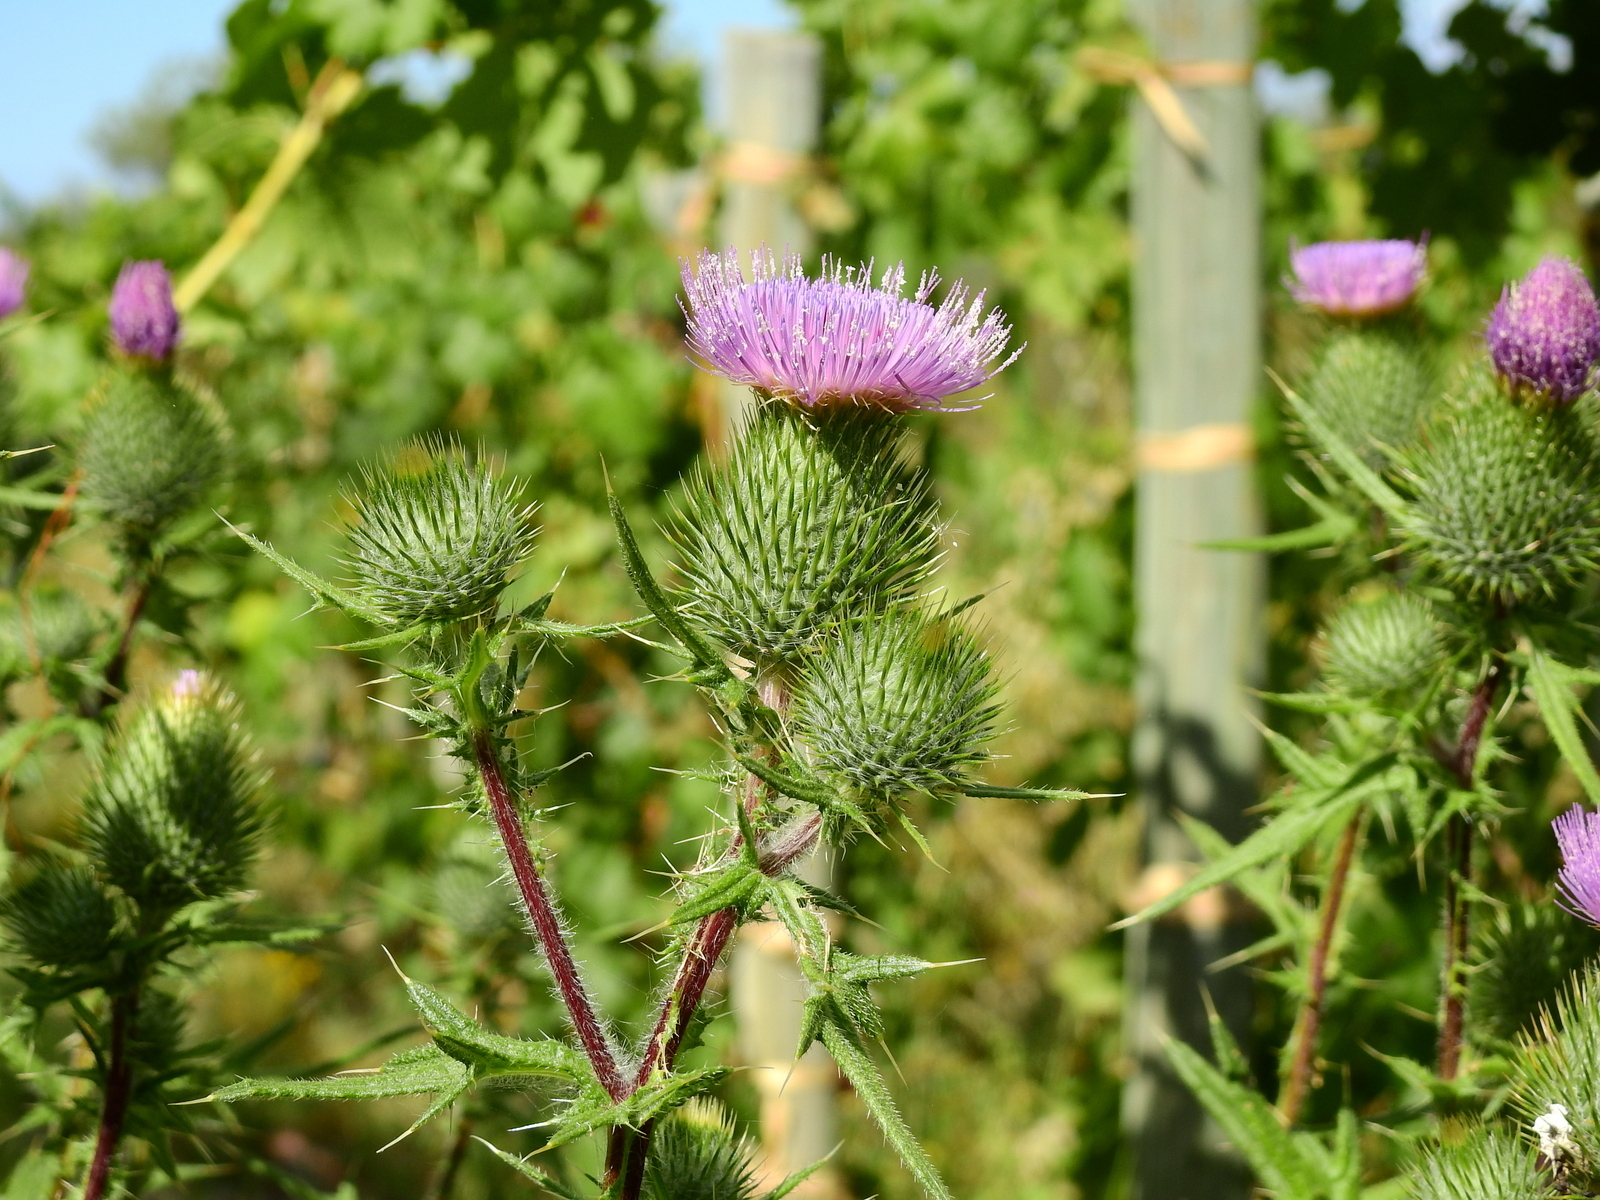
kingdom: Plantae
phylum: Tracheophyta
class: Magnoliopsida
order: Asterales
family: Asteraceae
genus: Cirsium
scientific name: Cirsium vulgare
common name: Bull thistle
